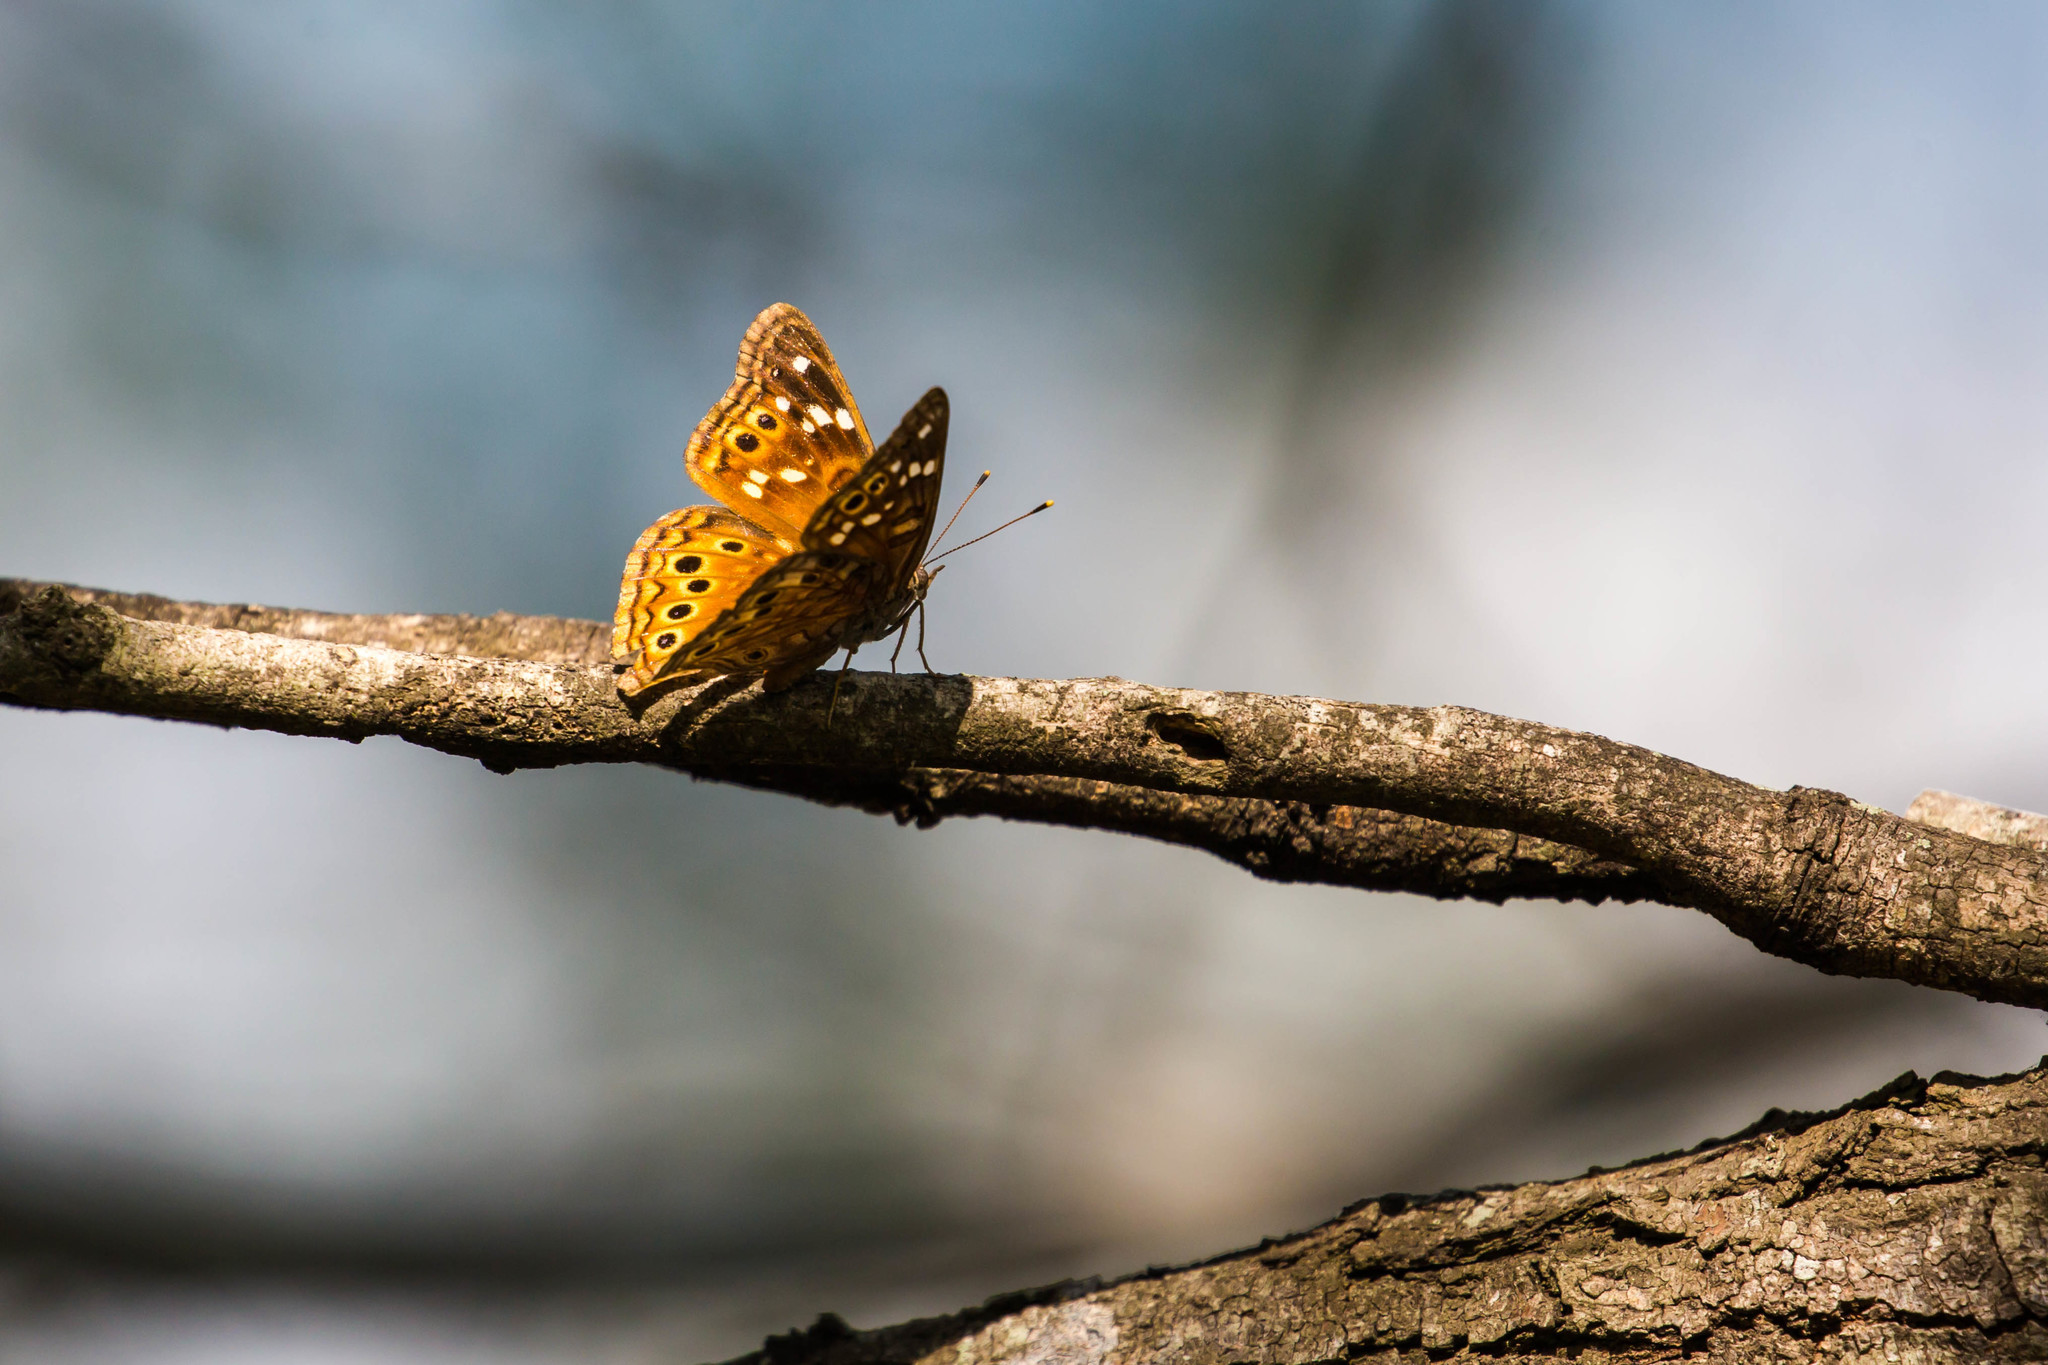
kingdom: Animalia
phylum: Arthropoda
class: Insecta
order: Lepidoptera
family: Nymphalidae
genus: Asterocampa
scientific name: Asterocampa leilia
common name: Empress leilia
